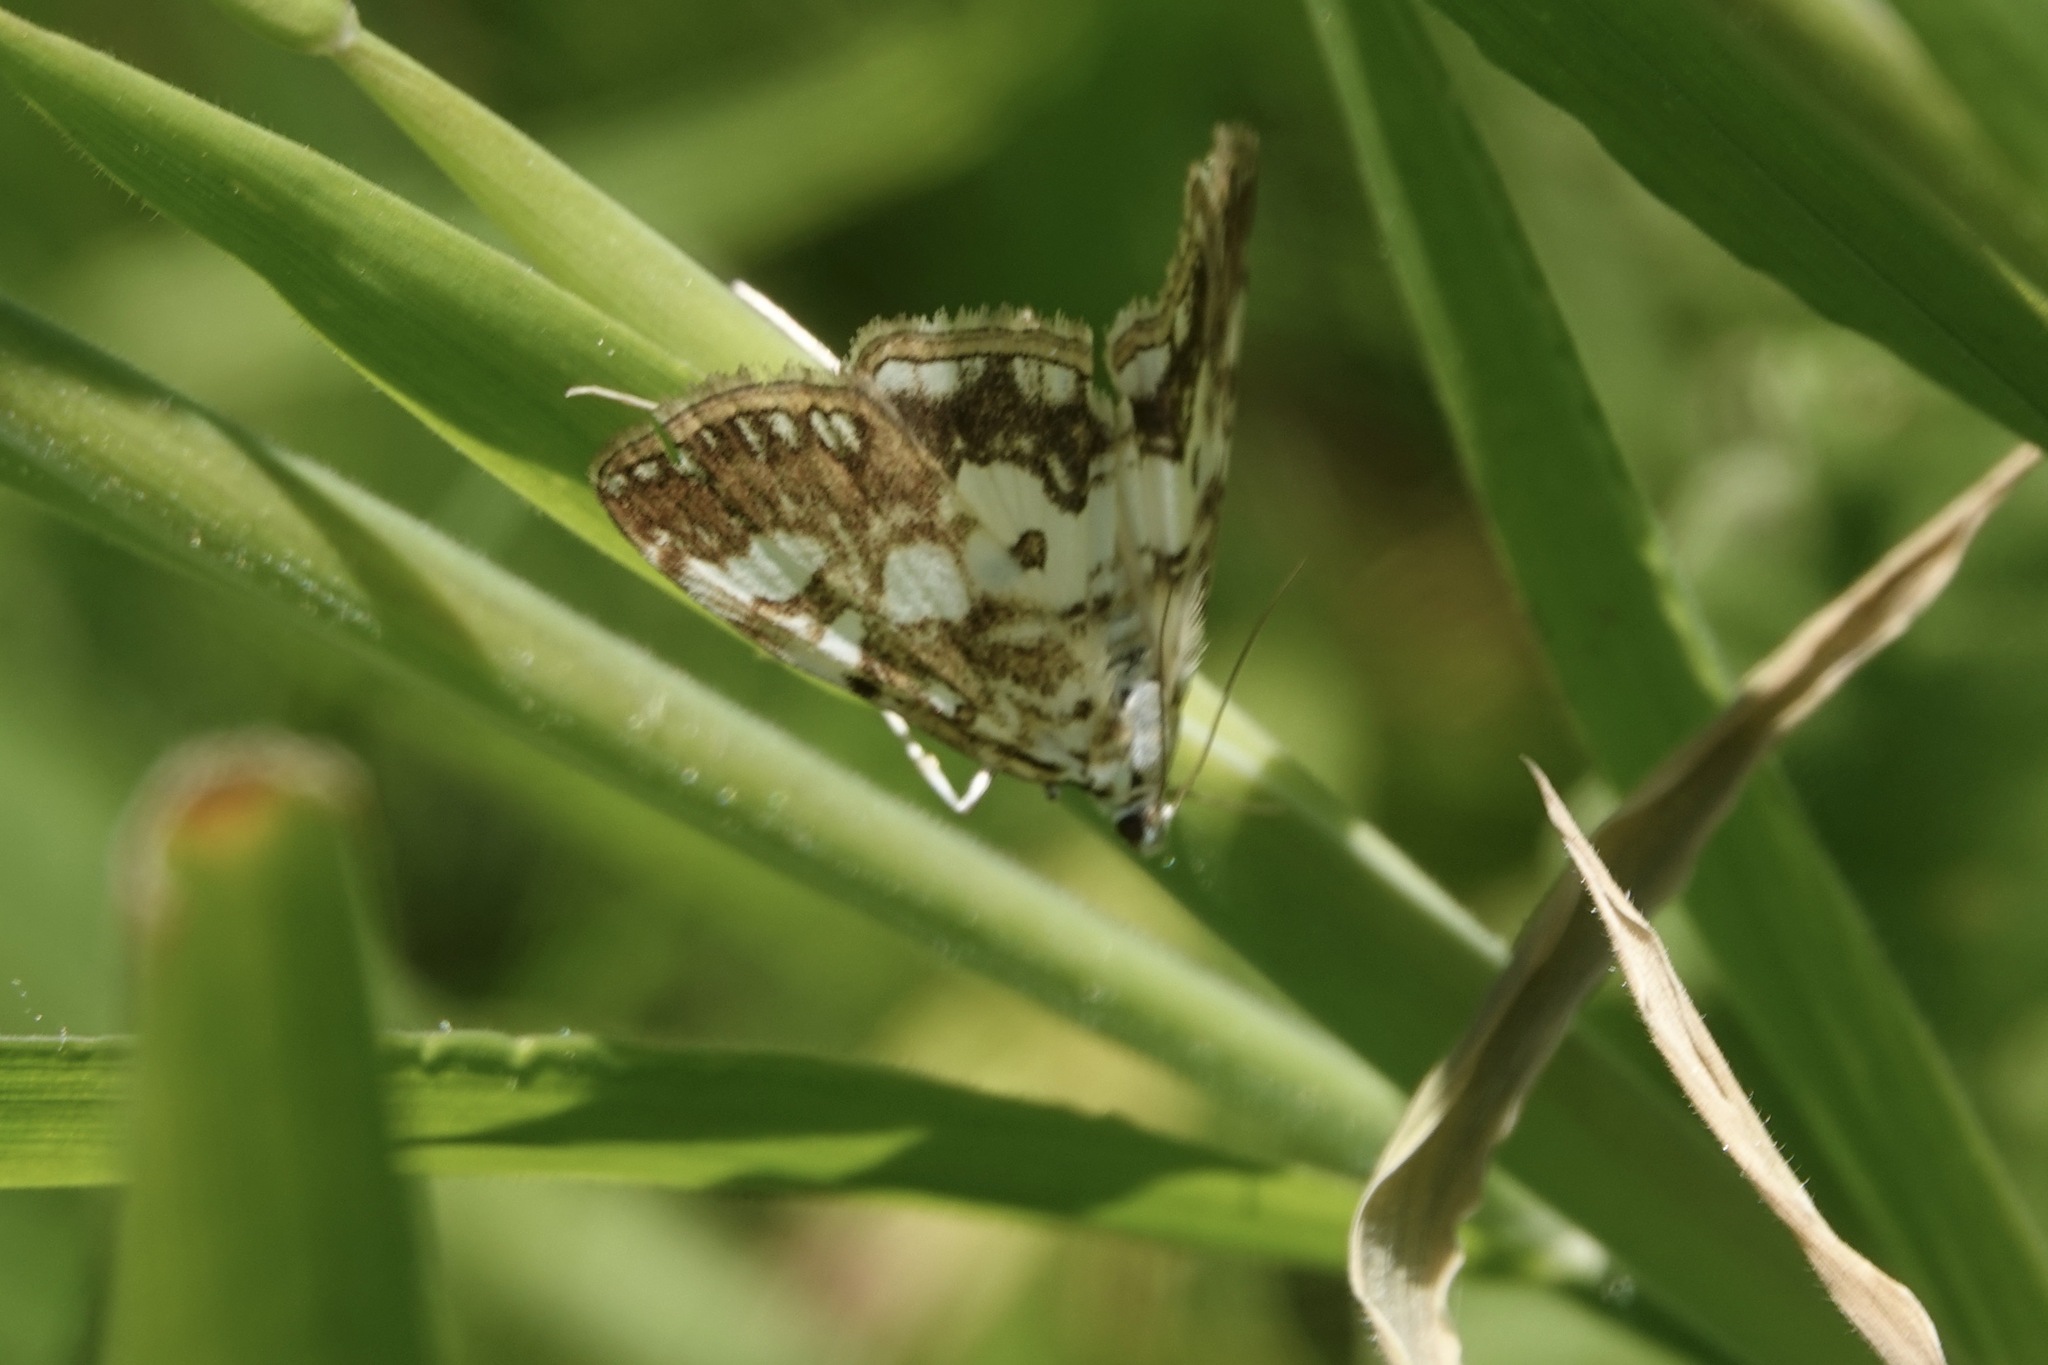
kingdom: Animalia
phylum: Arthropoda
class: Insecta
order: Lepidoptera
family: Crambidae
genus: Elophila
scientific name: Elophila nymphaeata
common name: Brown china-mark
